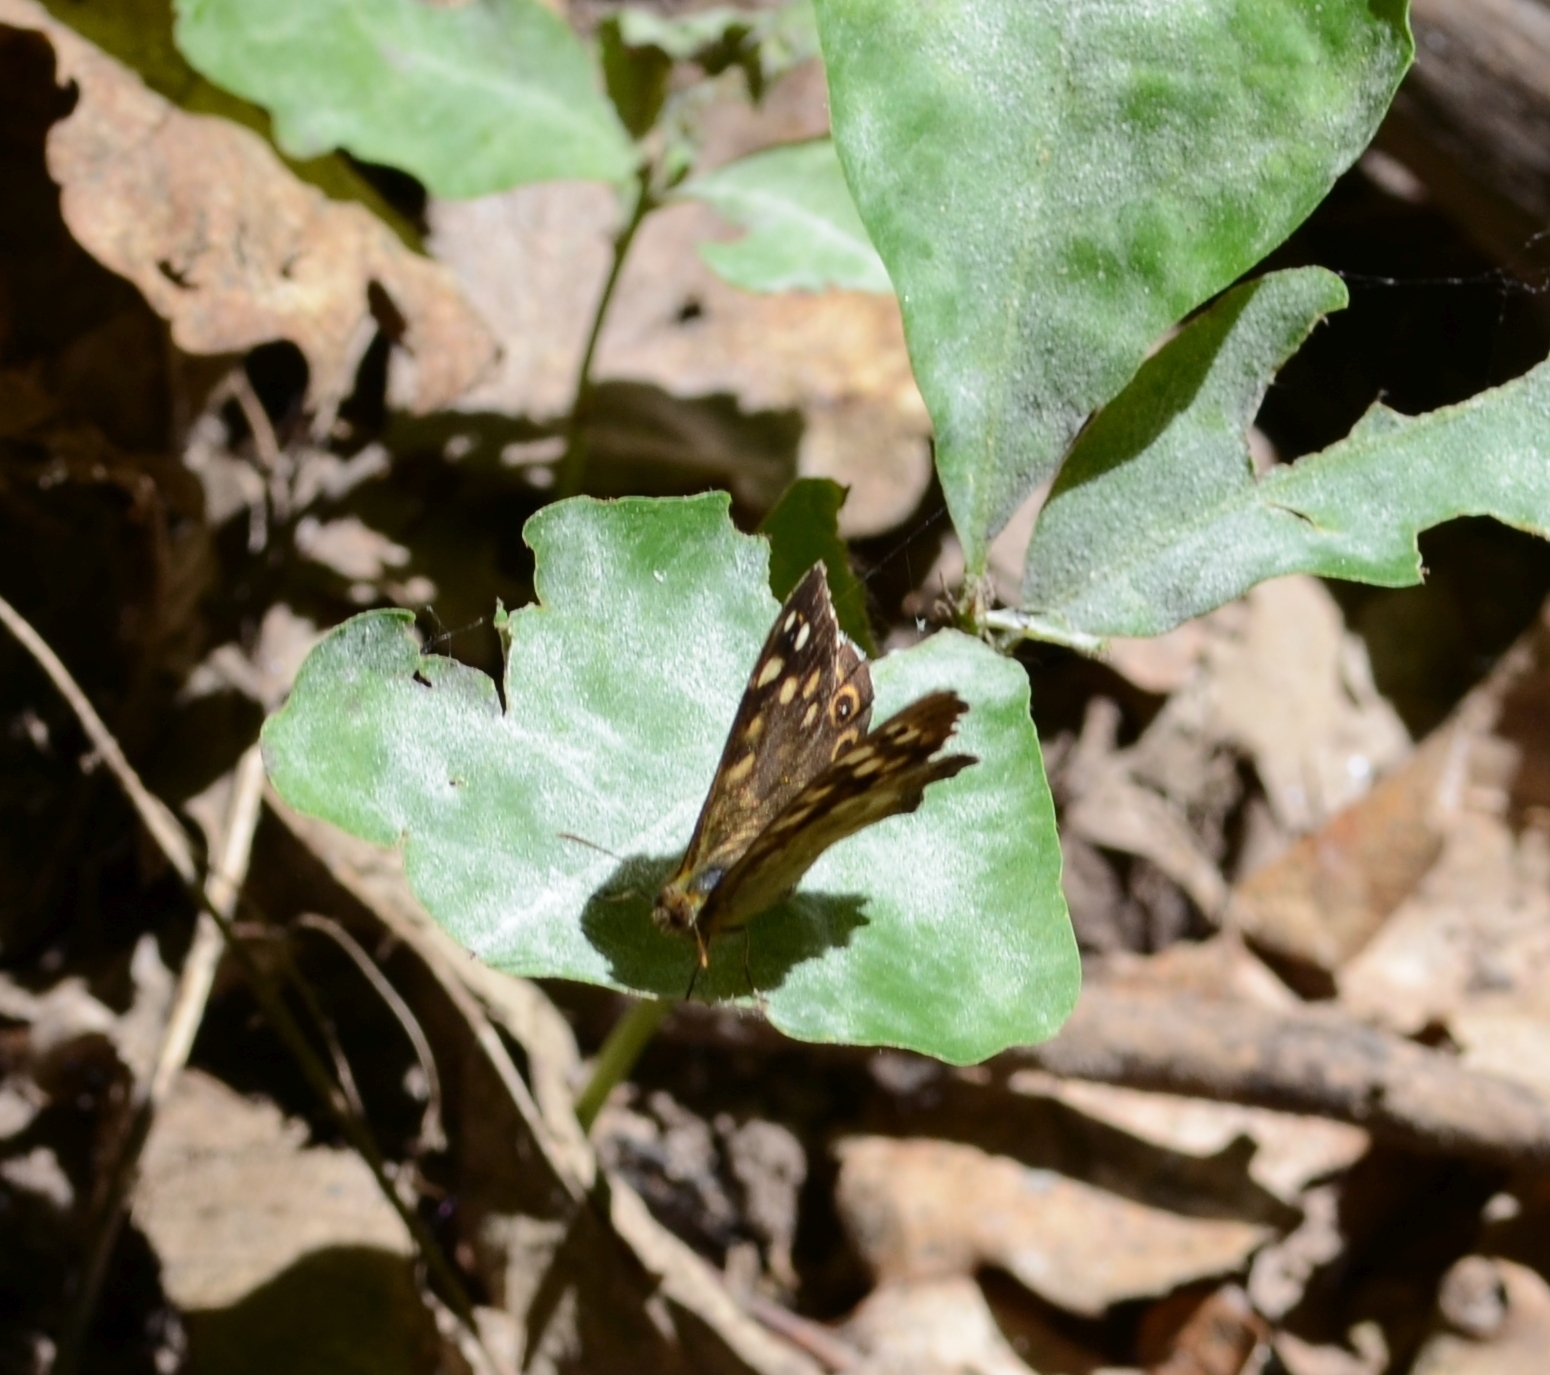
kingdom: Animalia
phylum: Arthropoda
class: Insecta
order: Lepidoptera
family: Nymphalidae
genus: Pararge
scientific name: Pararge aegeria
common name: Speckled wood
